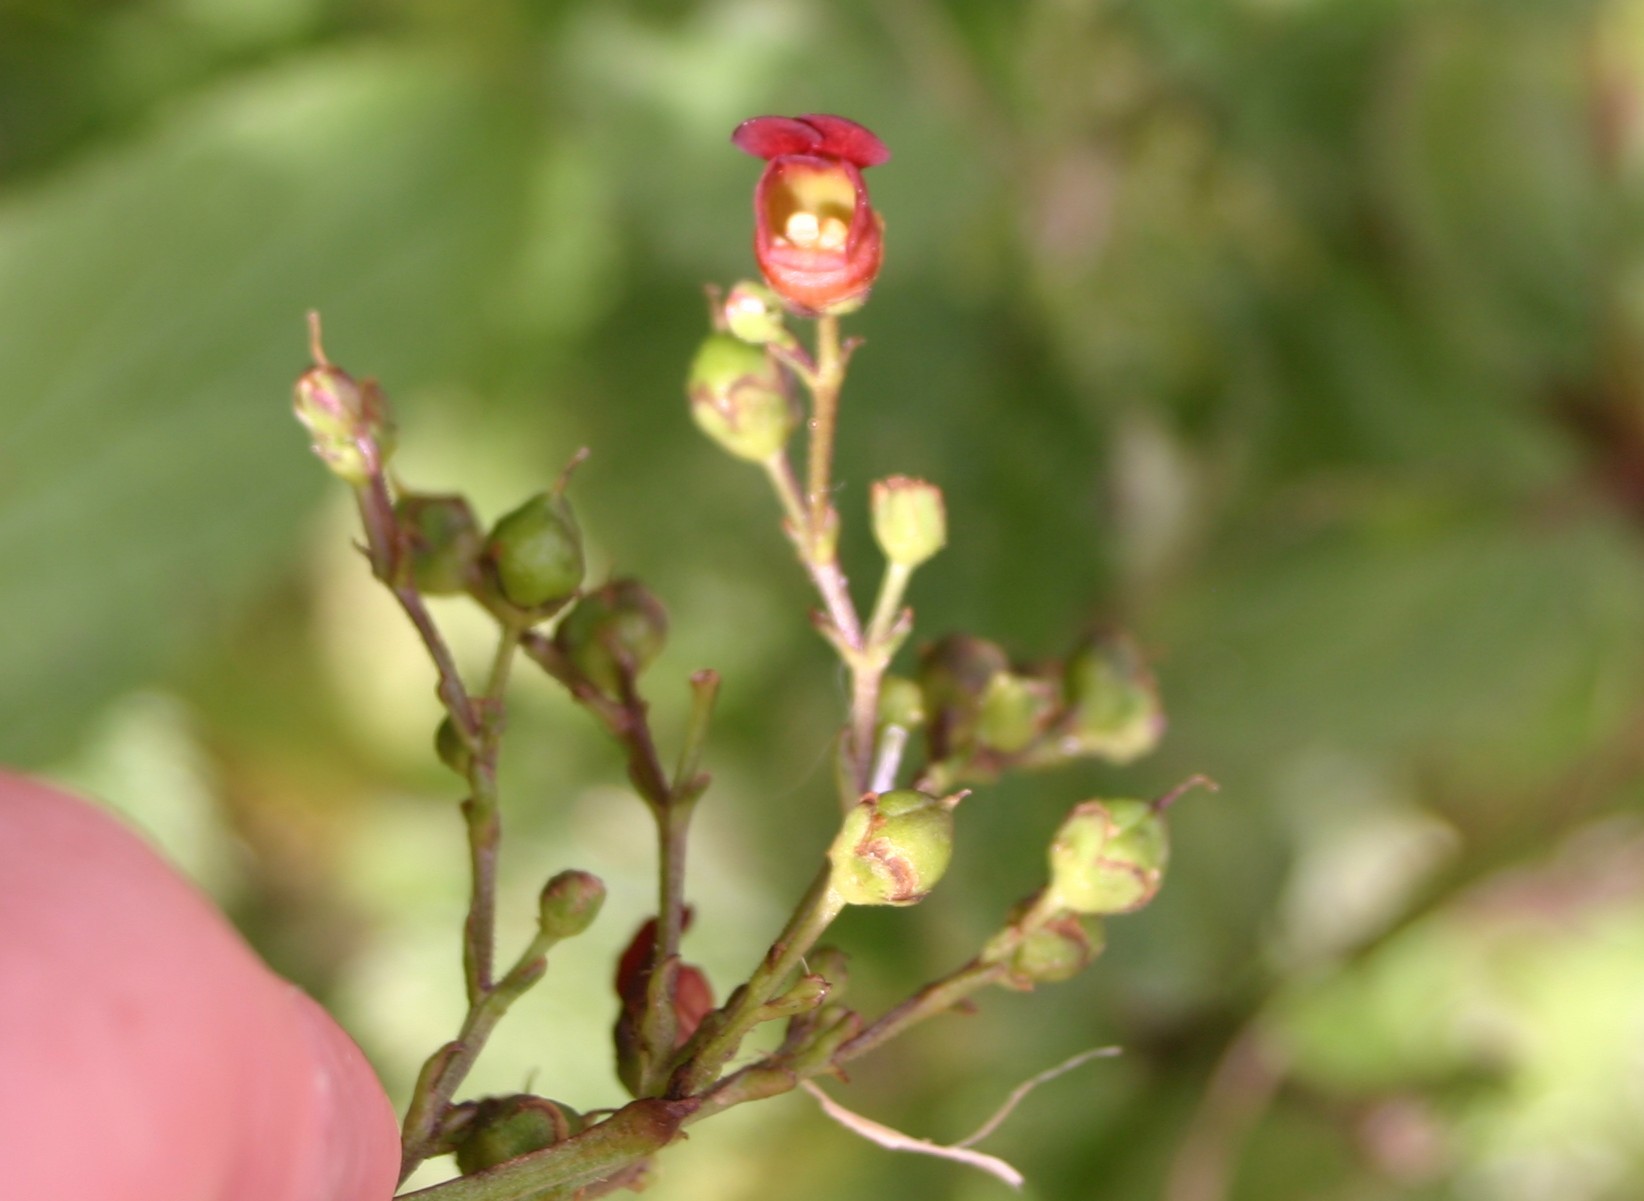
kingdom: Plantae
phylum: Tracheophyta
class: Magnoliopsida
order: Lamiales
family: Scrophulariaceae
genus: Scrophularia
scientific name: Scrophularia auriculata
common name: Water betony
